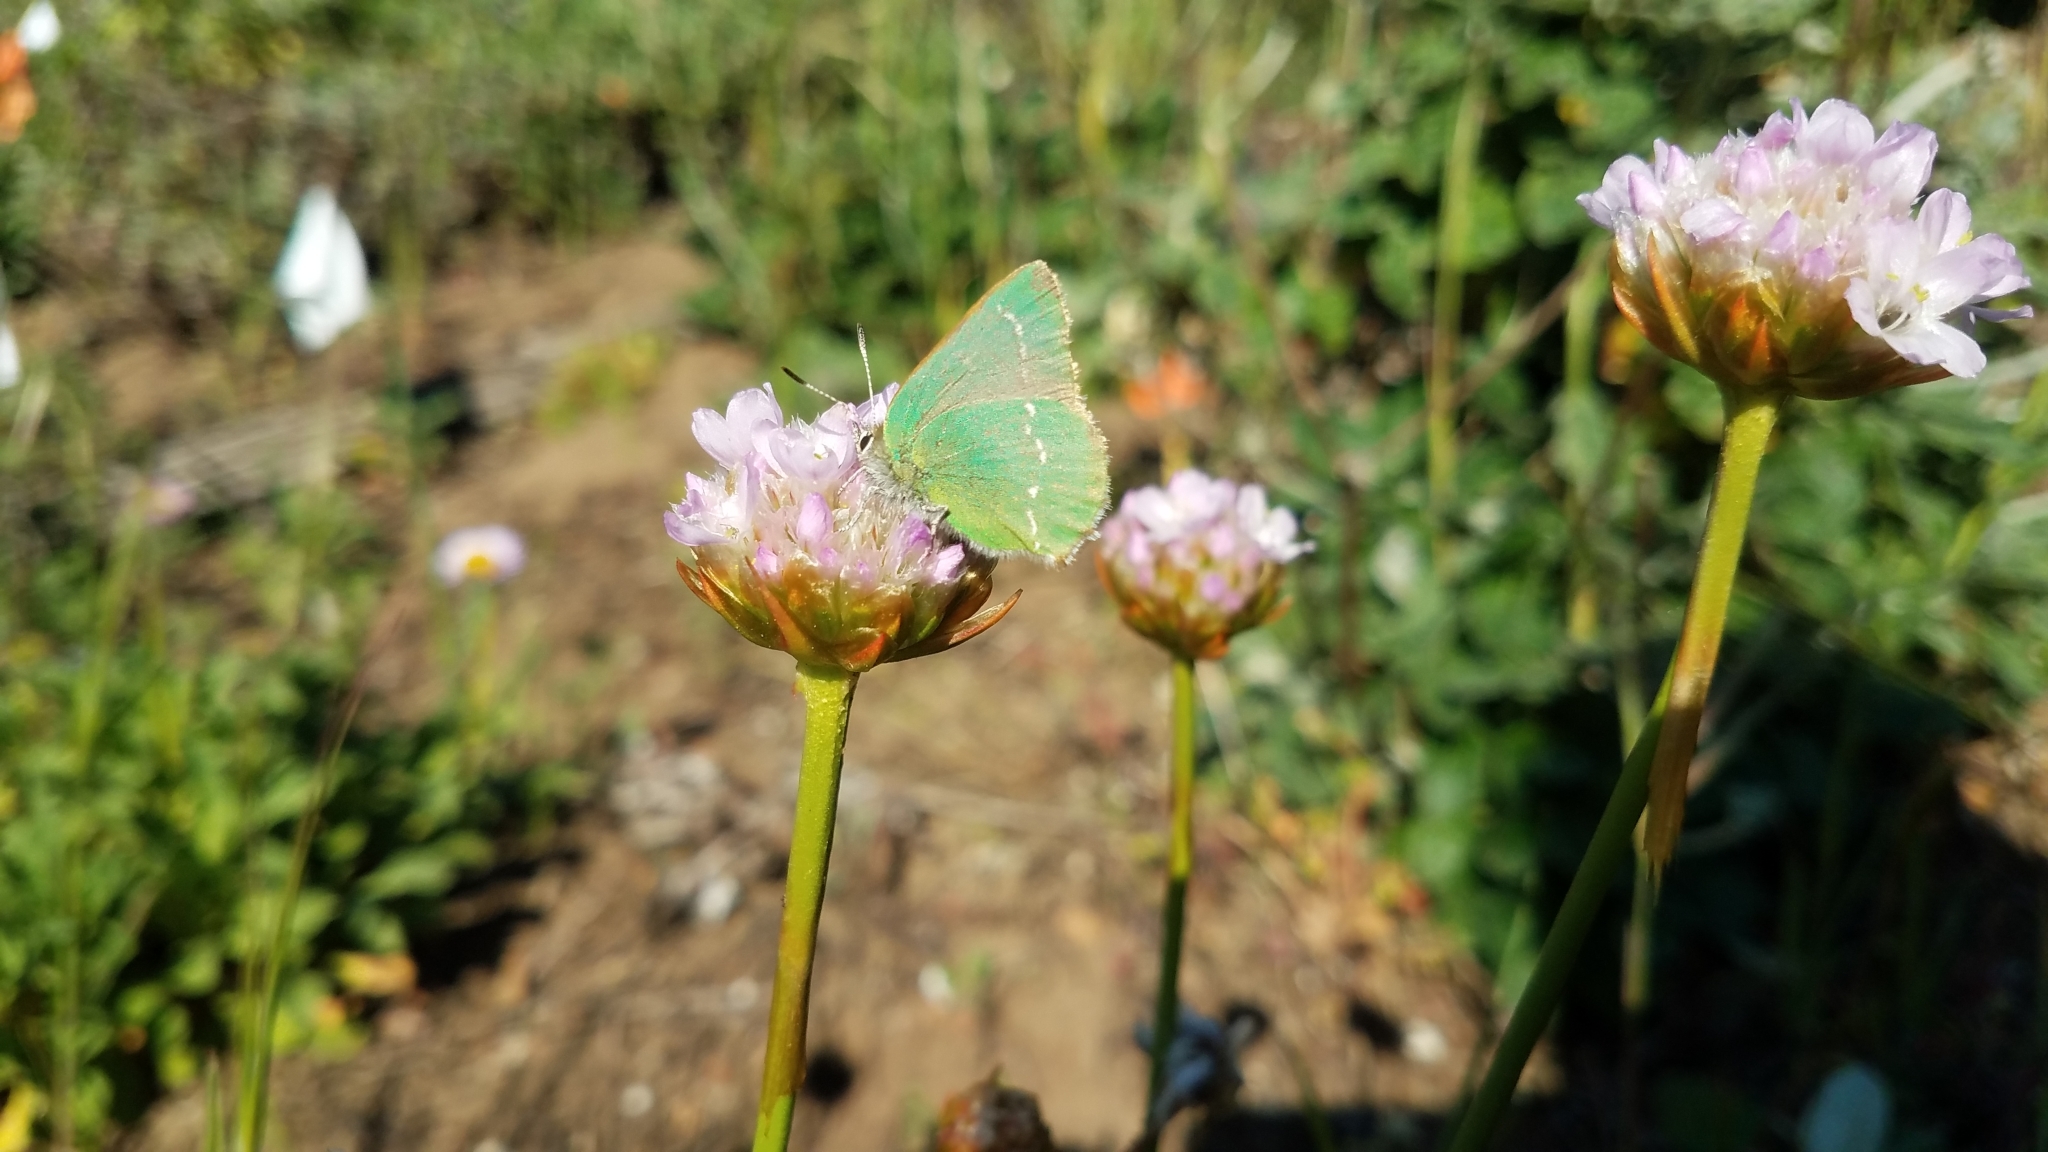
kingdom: Animalia
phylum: Arthropoda
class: Insecta
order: Lepidoptera
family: Lycaenidae
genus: Callophrys
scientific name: Callophrys viridis
